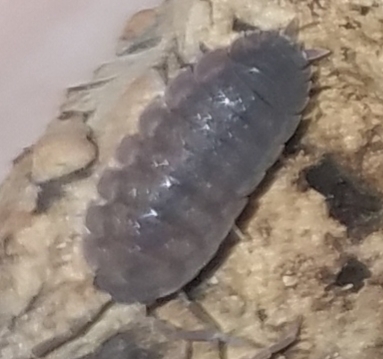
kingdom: Animalia
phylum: Arthropoda
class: Malacostraca
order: Isopoda
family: Porcellionidae
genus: Porcellio
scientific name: Porcellio scaber
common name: Common rough woodlouse
